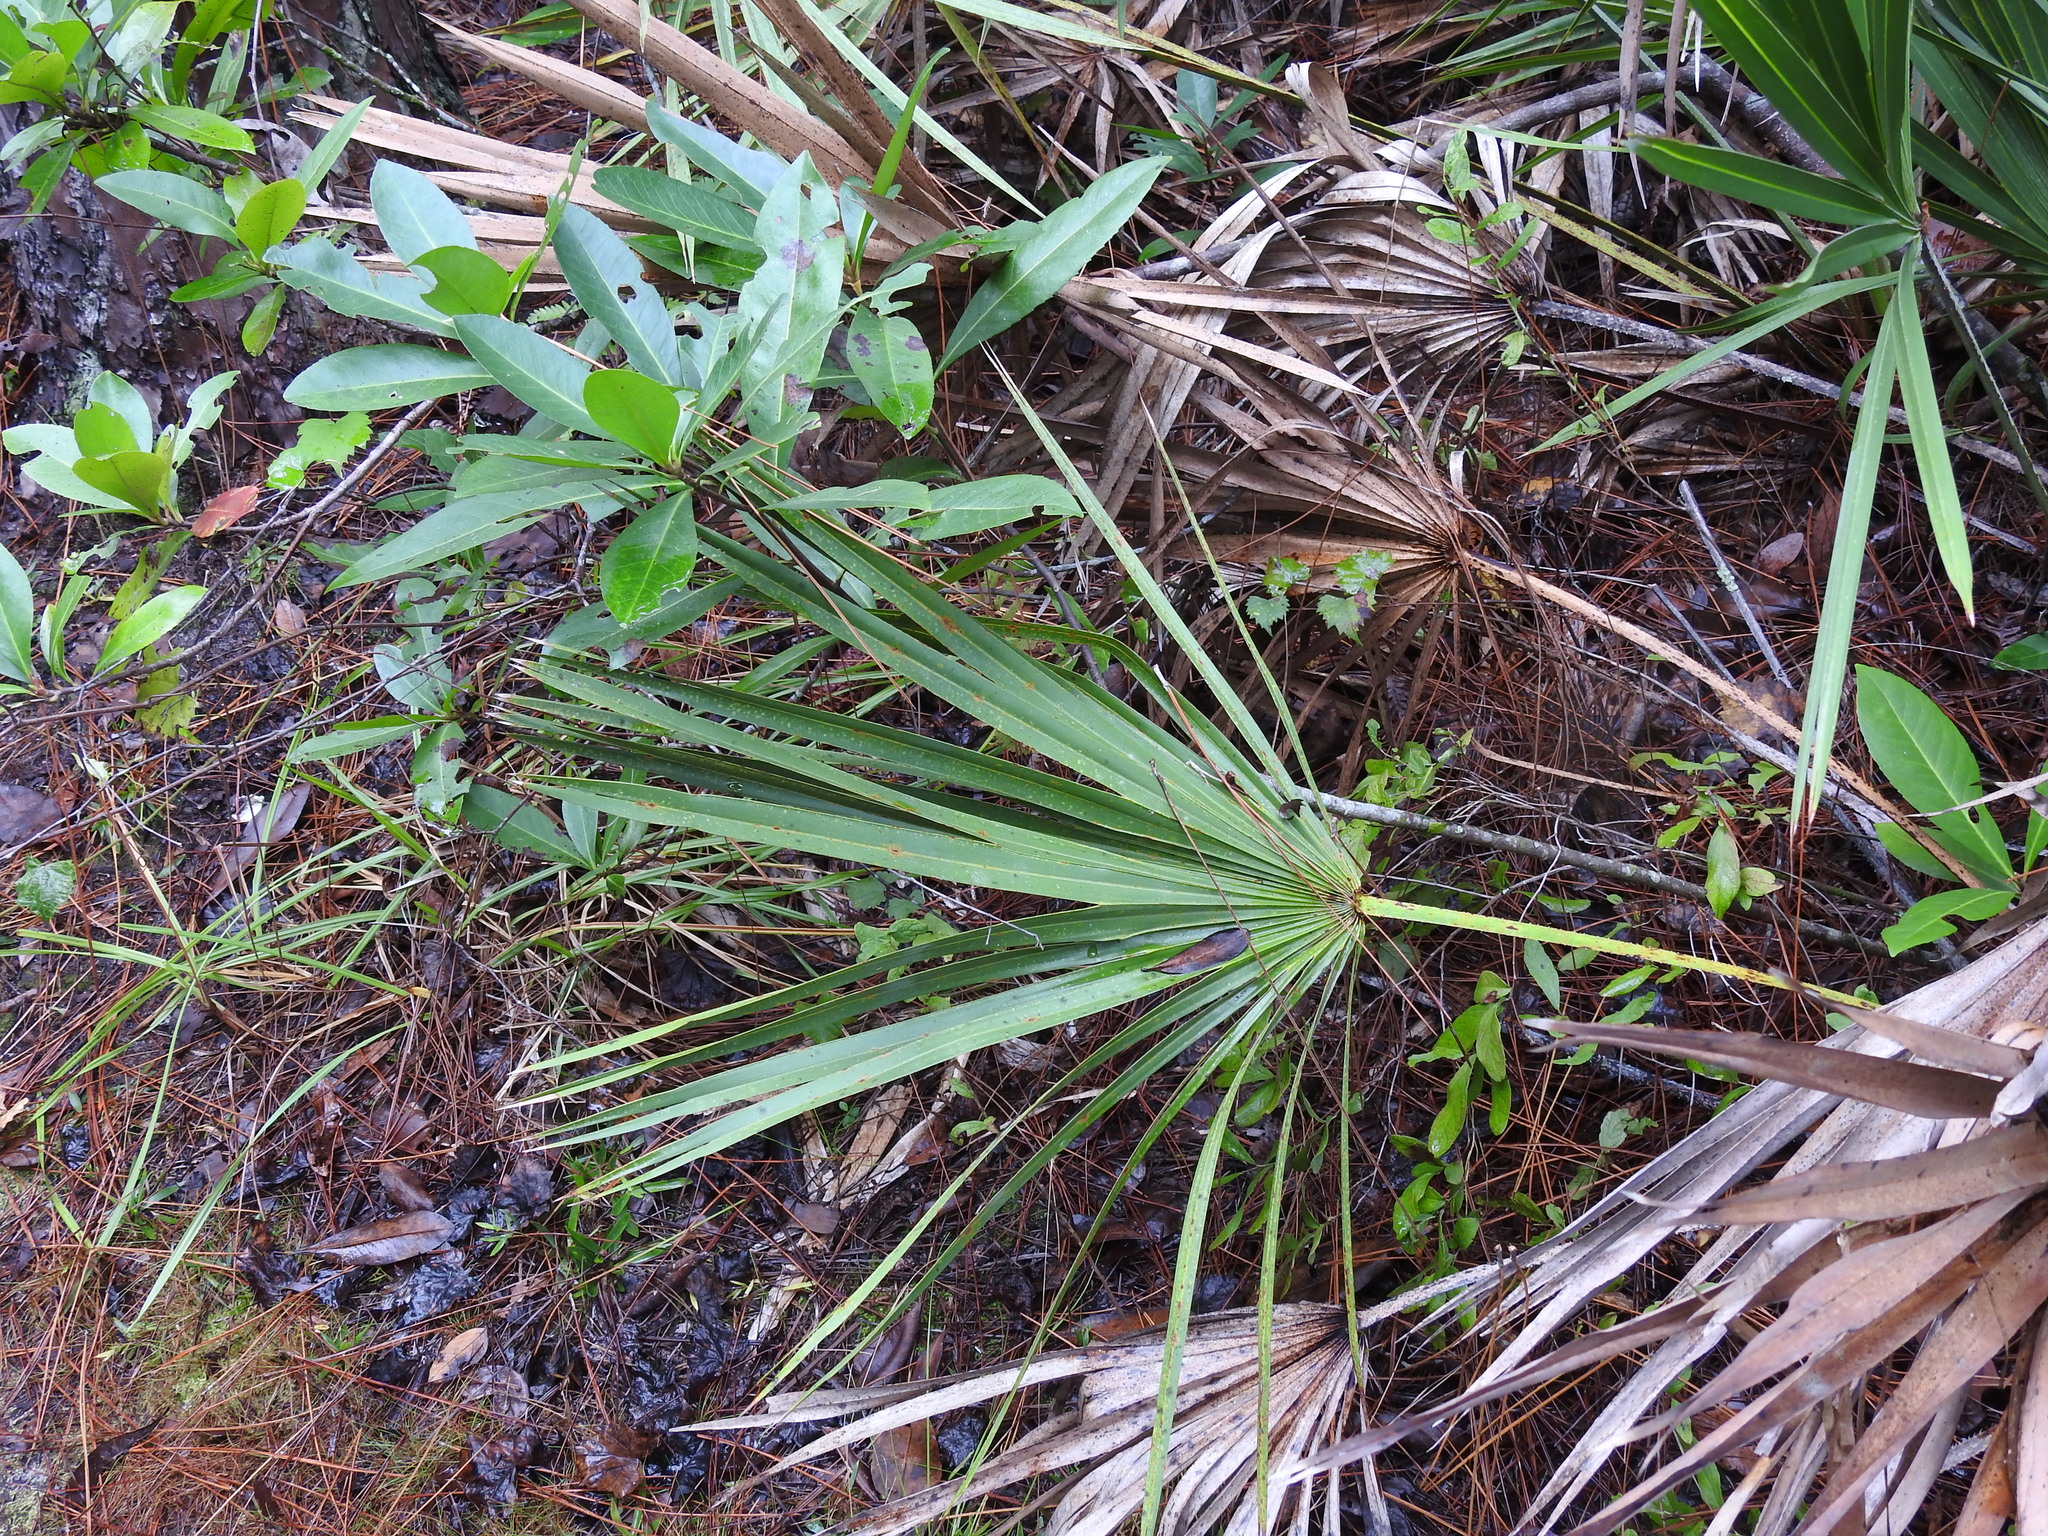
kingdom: Plantae
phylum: Tracheophyta
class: Liliopsida
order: Arecales
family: Arecaceae
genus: Serenoa
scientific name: Serenoa repens
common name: Saw-palmetto
